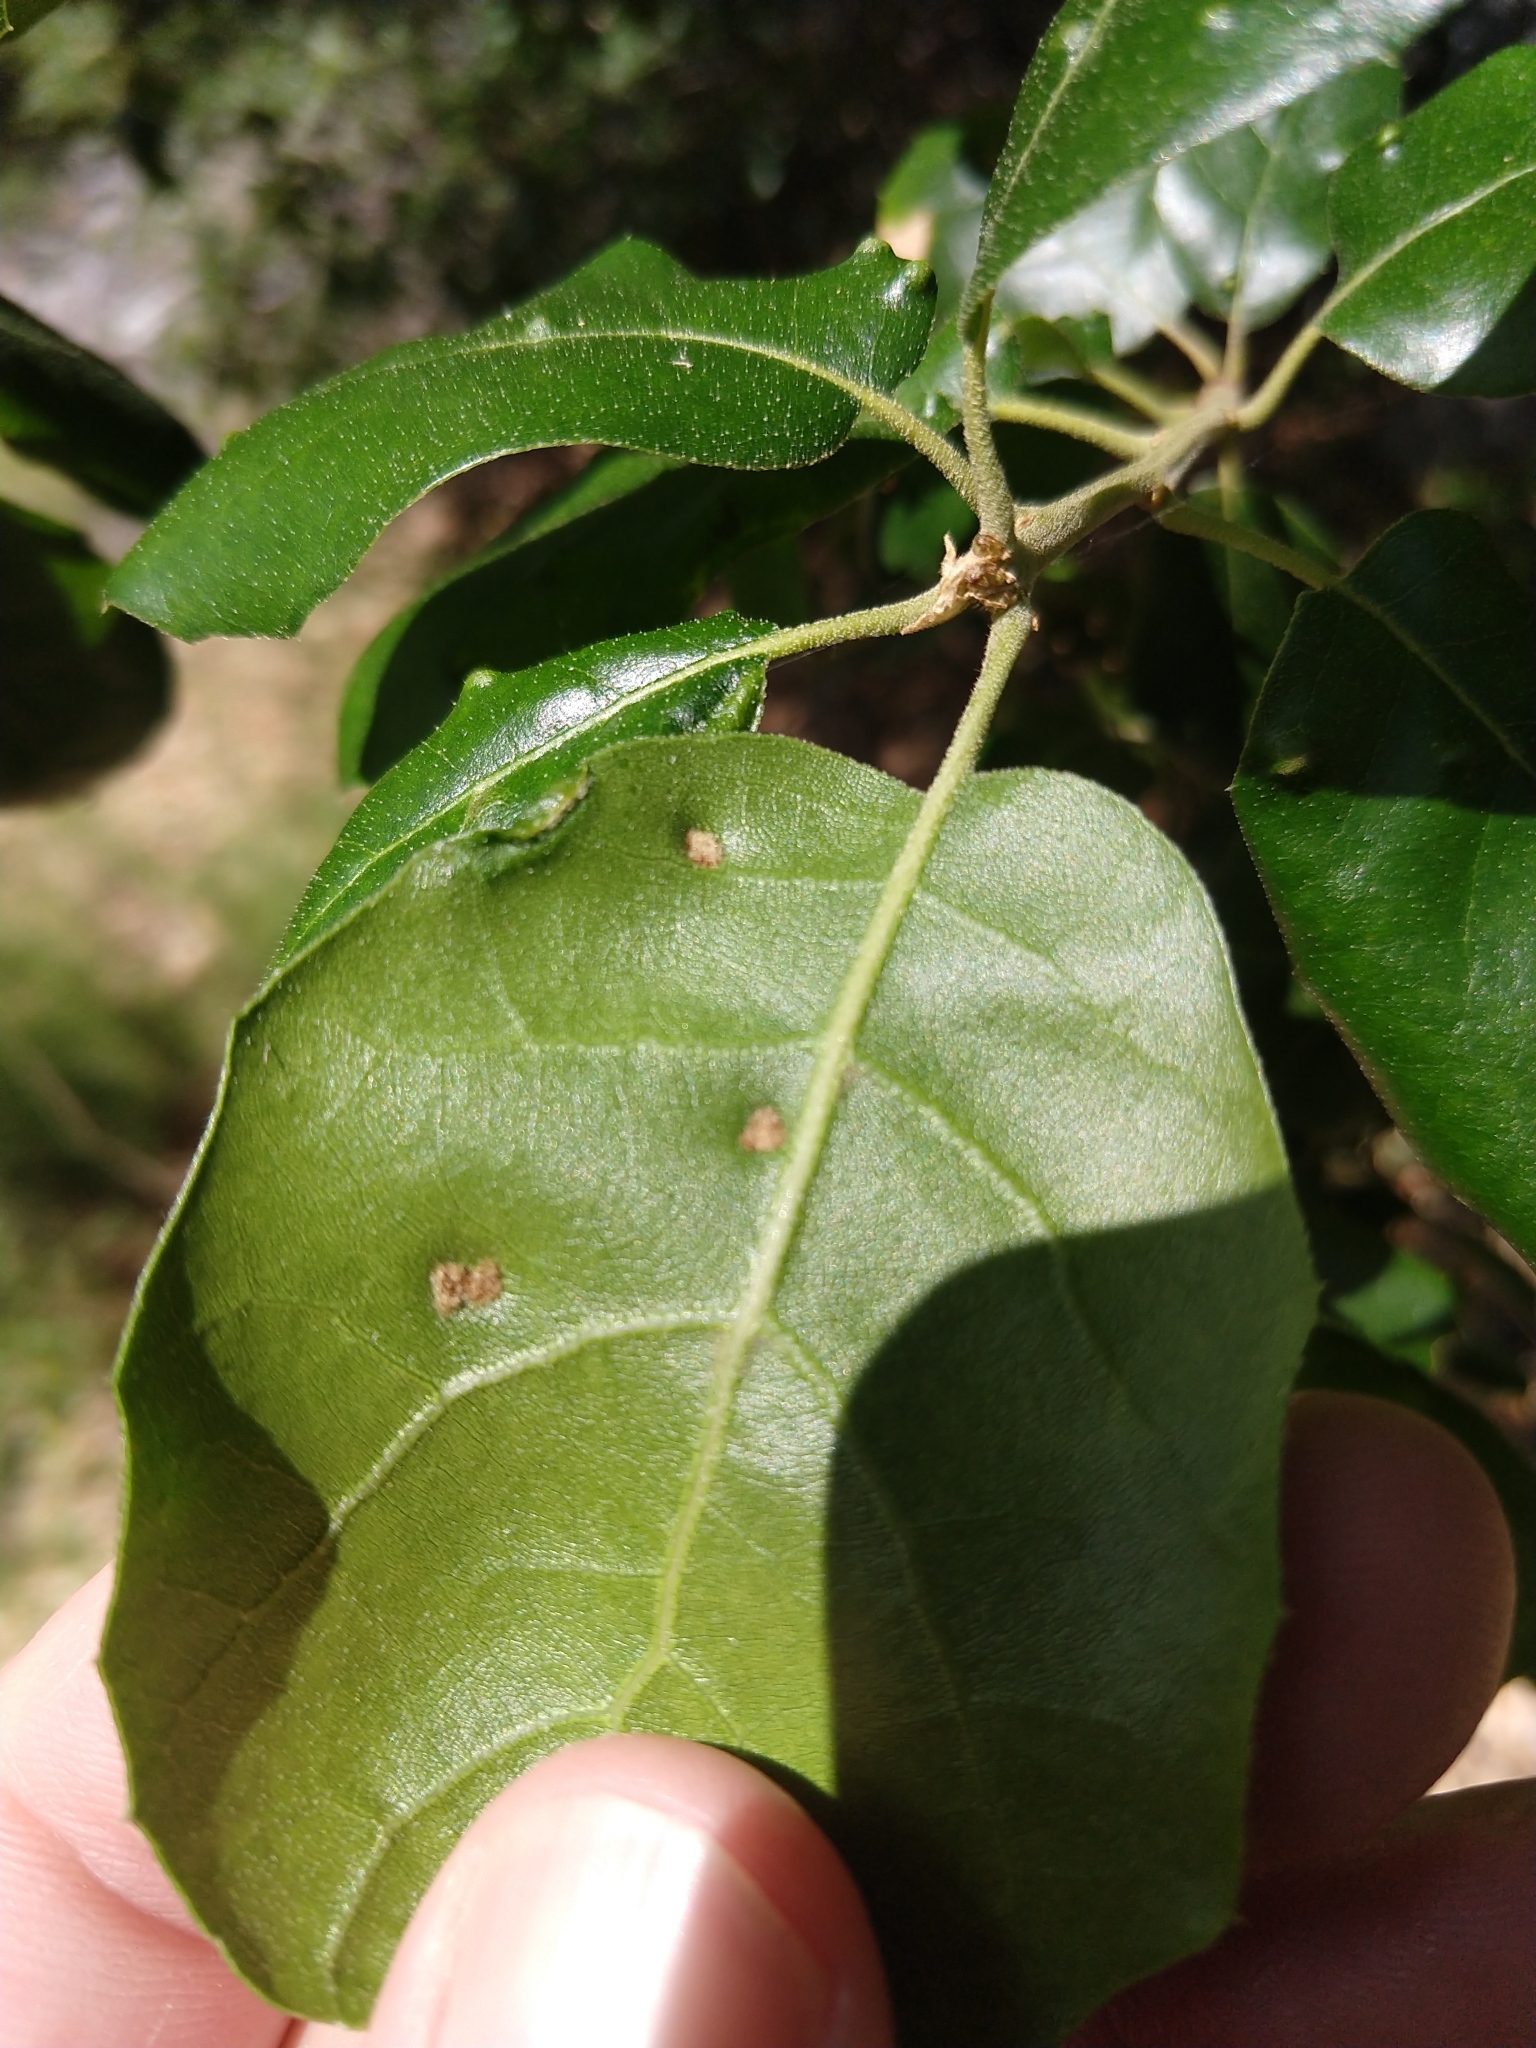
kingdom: Animalia
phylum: Arthropoda
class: Arachnida
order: Trombidiformes
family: Eriophyidae
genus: Aceria
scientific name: Aceria
